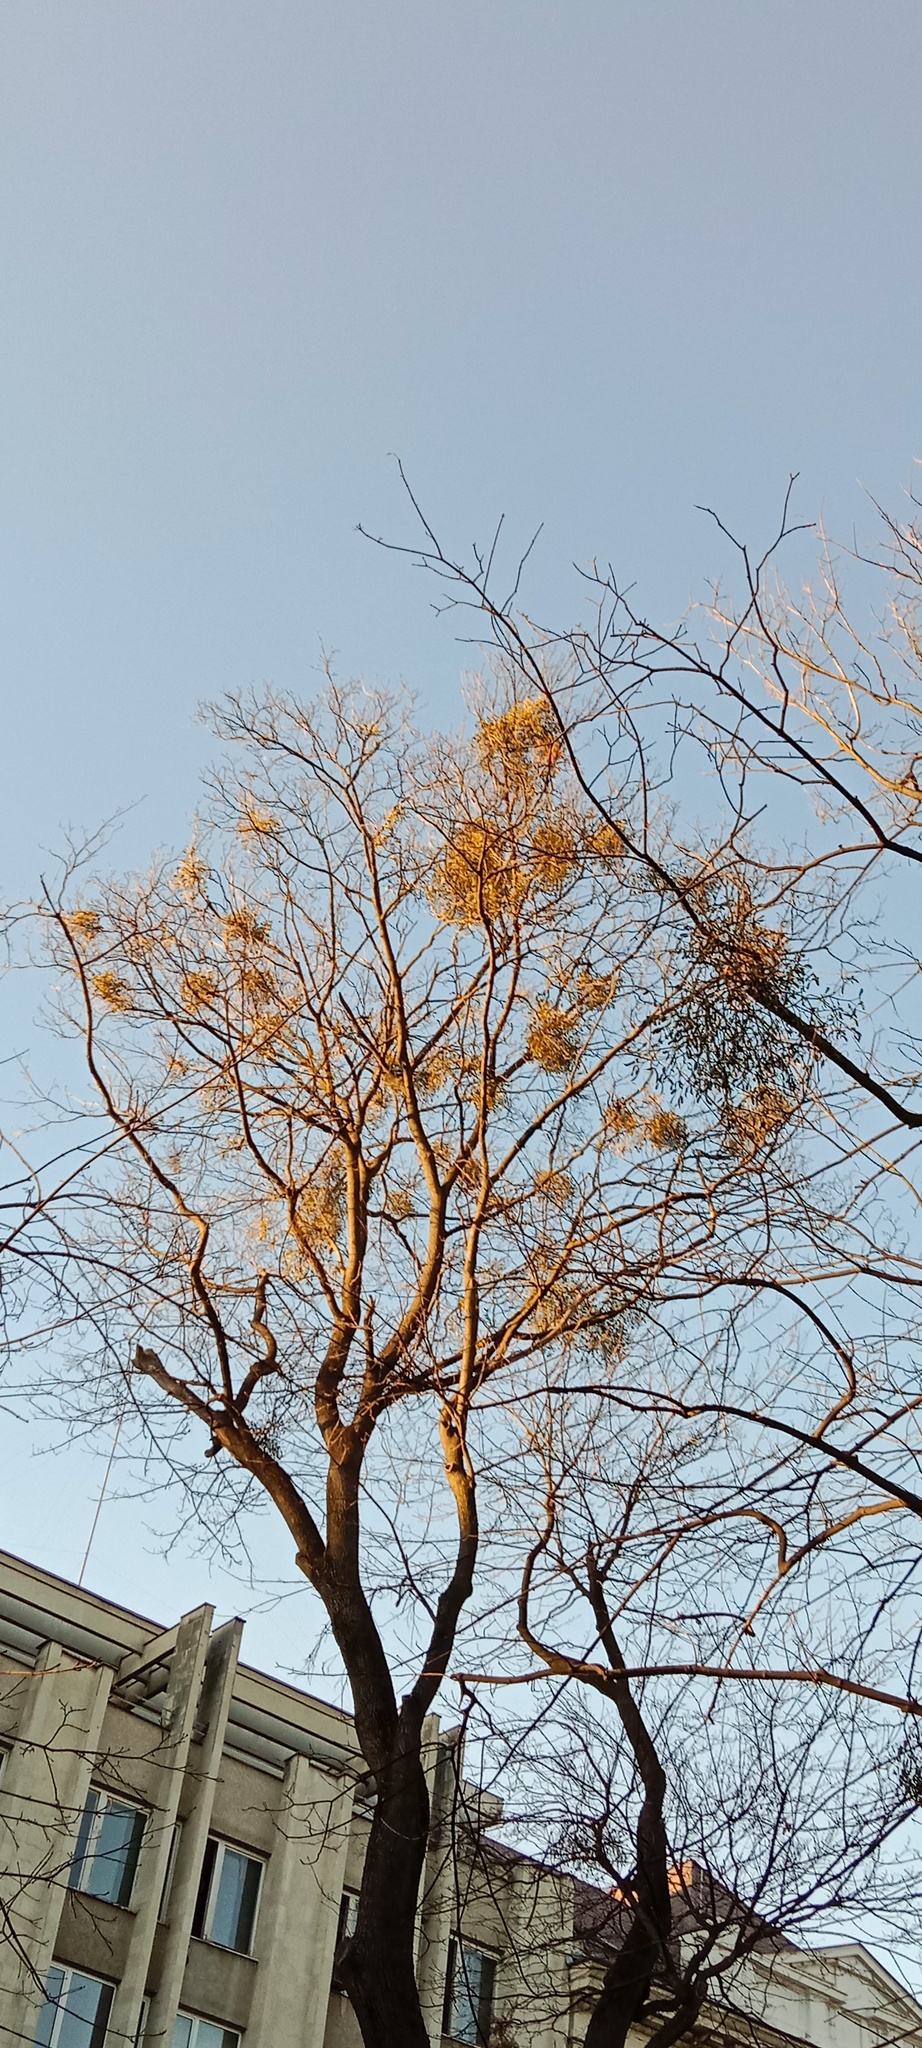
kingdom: Plantae
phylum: Tracheophyta
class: Magnoliopsida
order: Santalales
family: Viscaceae
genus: Viscum
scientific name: Viscum album
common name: Mistletoe
